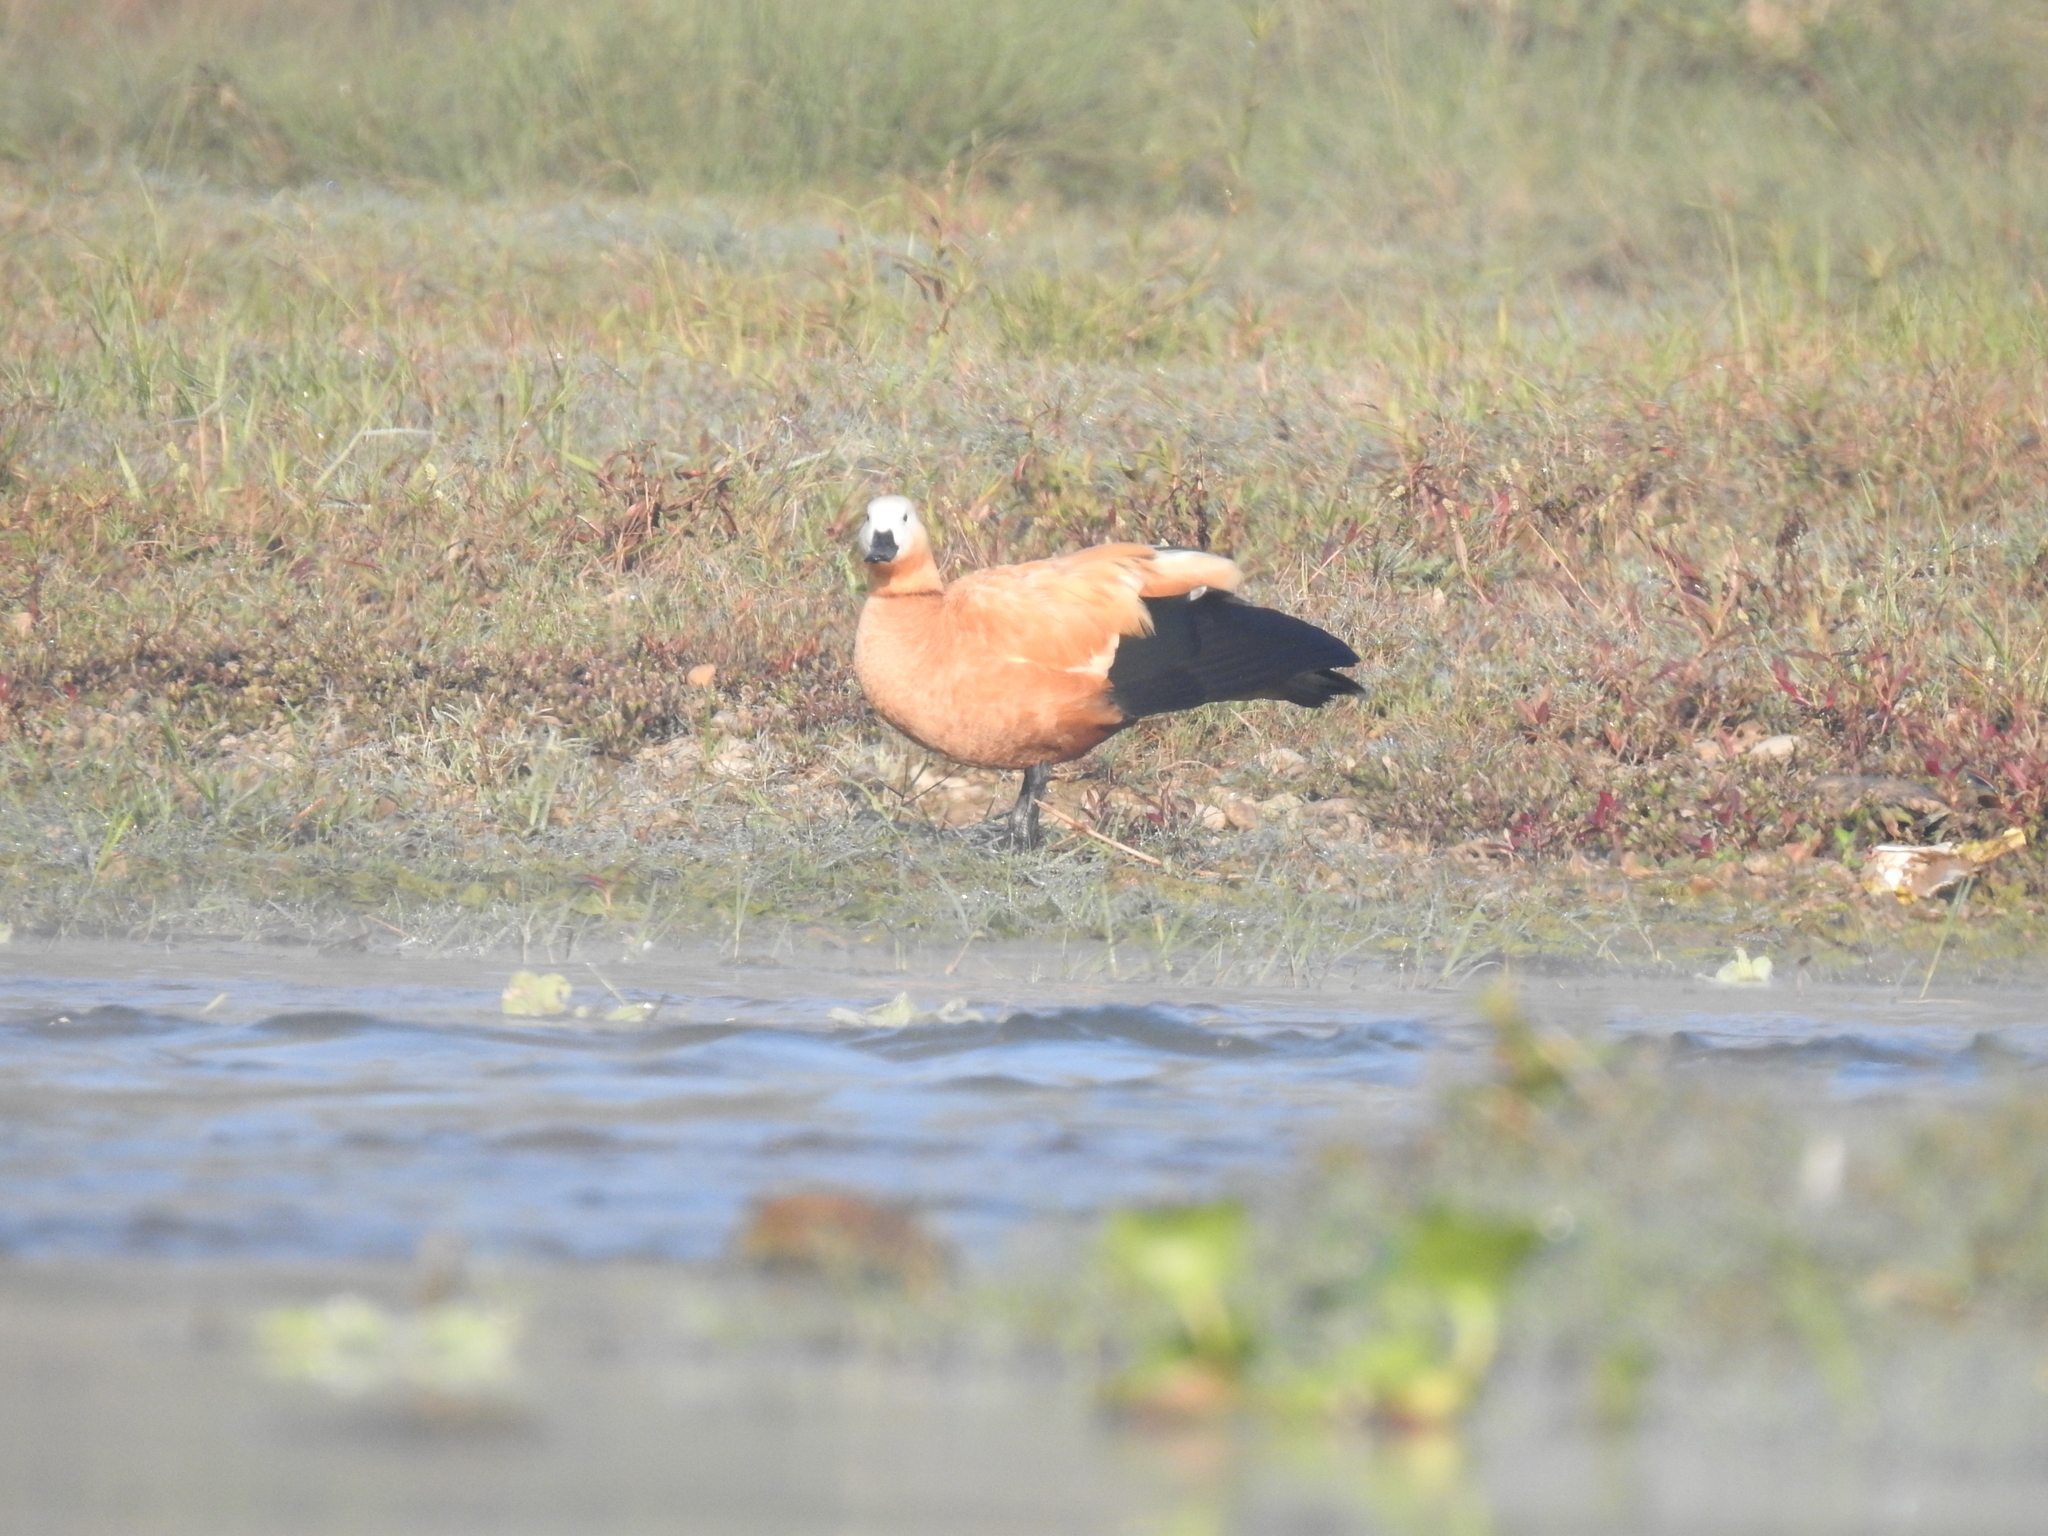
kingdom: Animalia
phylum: Chordata
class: Aves
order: Anseriformes
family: Anatidae
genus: Tadorna
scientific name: Tadorna ferruginea
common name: Ruddy shelduck
